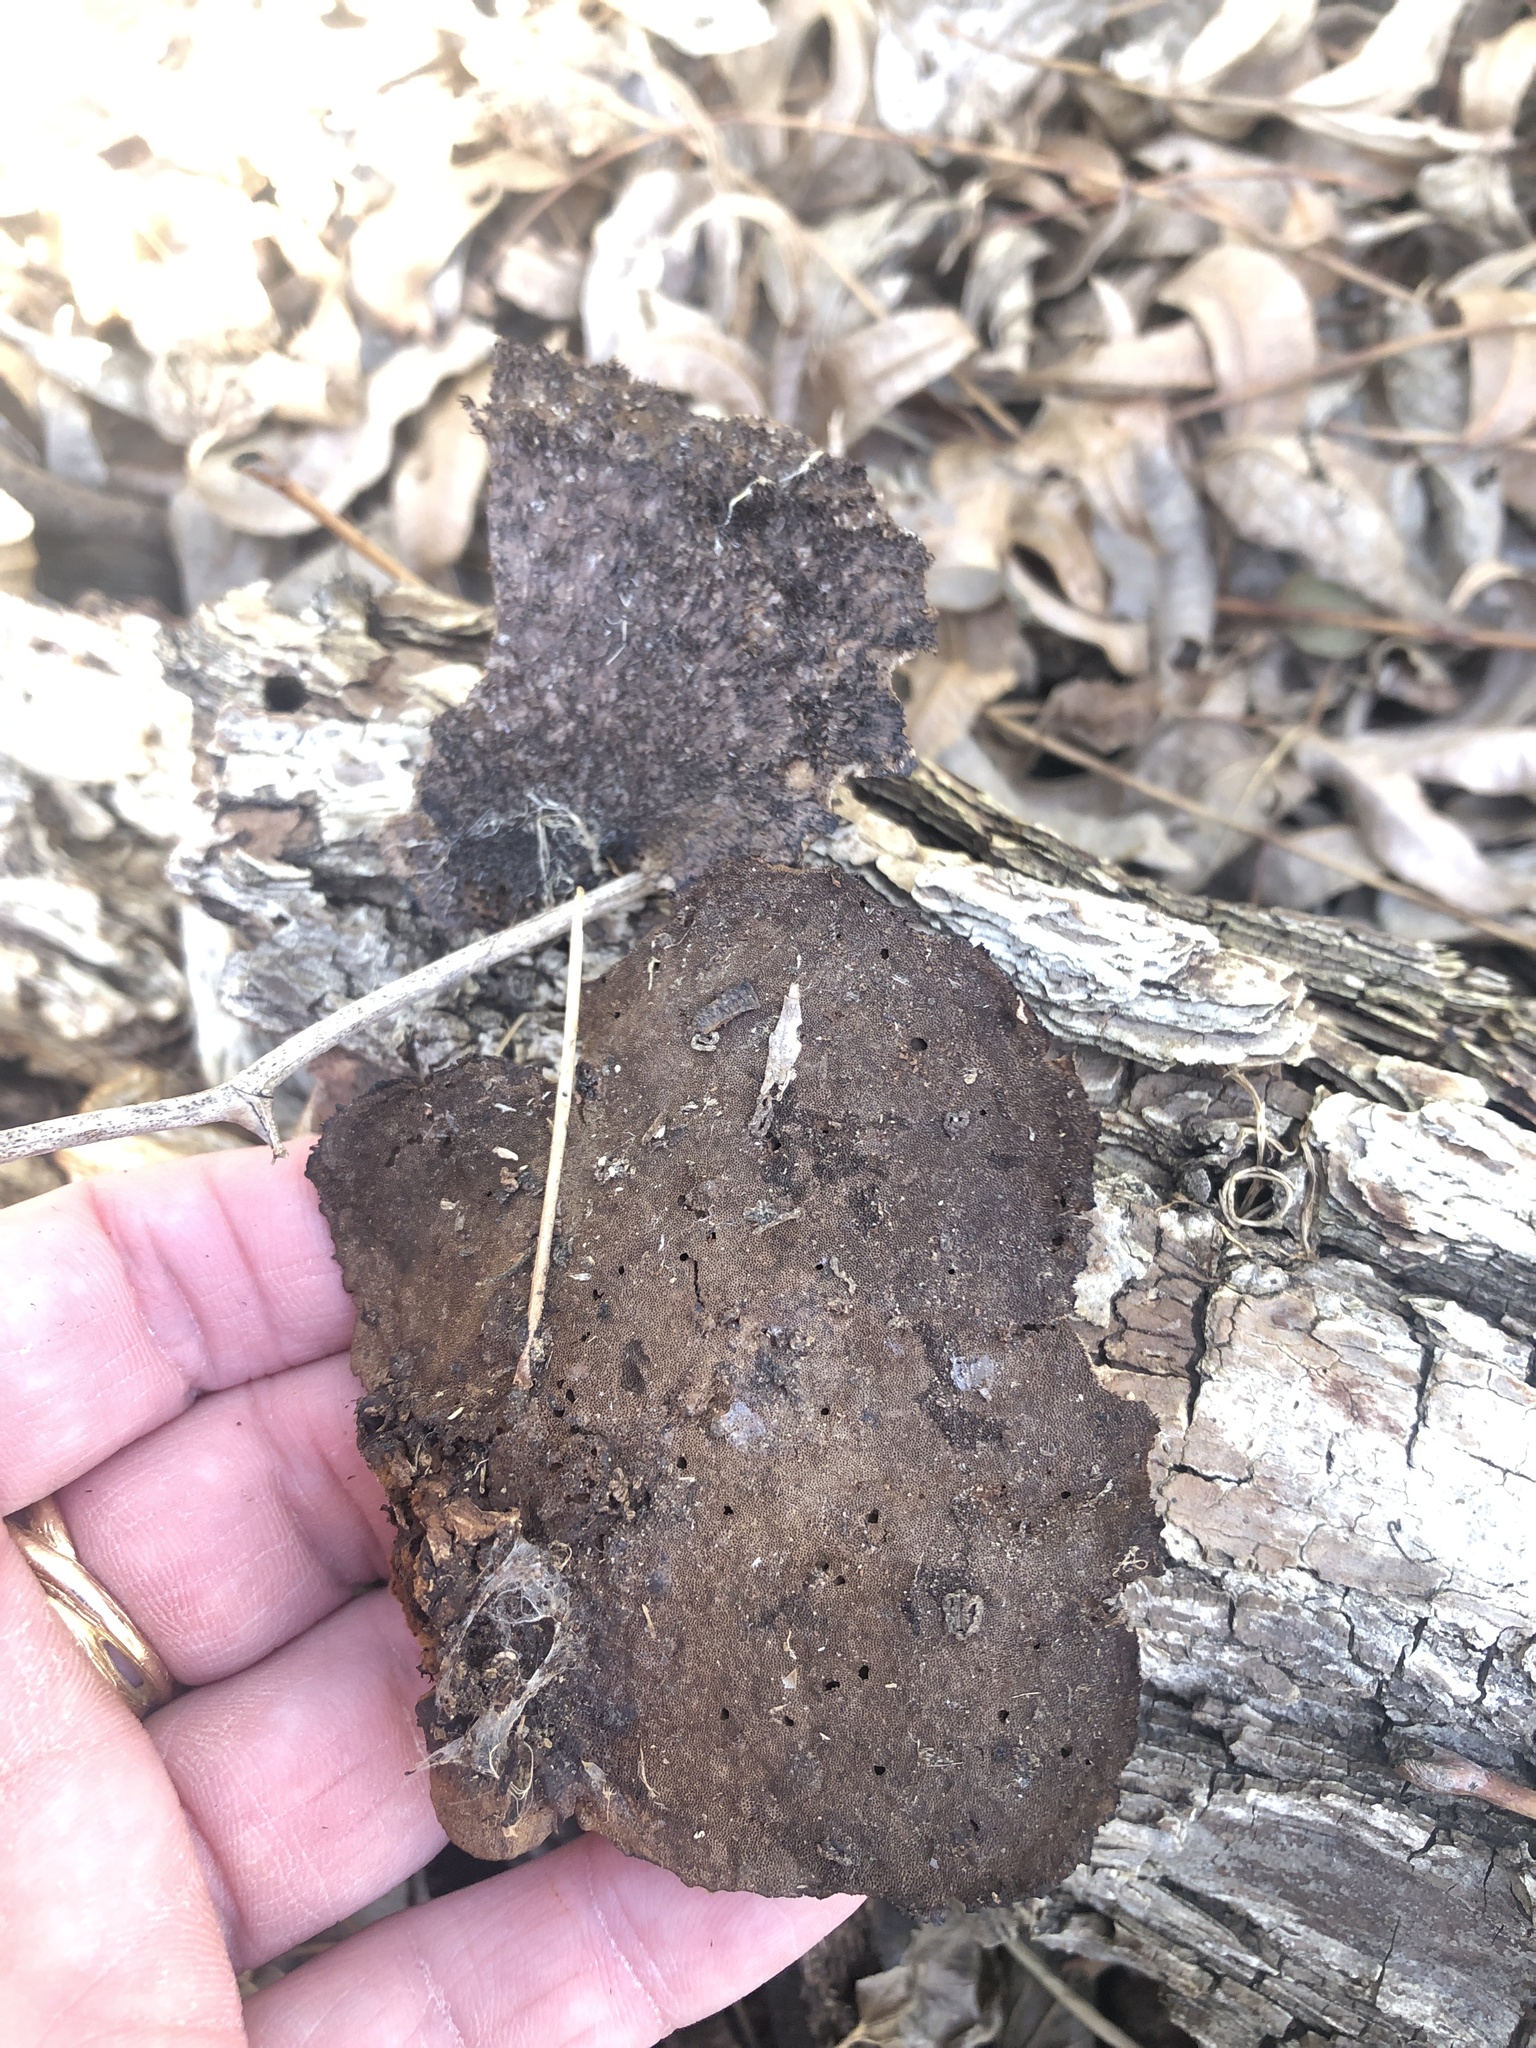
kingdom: Fungi
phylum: Basidiomycota
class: Agaricomycetes
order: Polyporales
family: Cerrenaceae
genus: Cerrena
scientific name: Cerrena hydnoides
